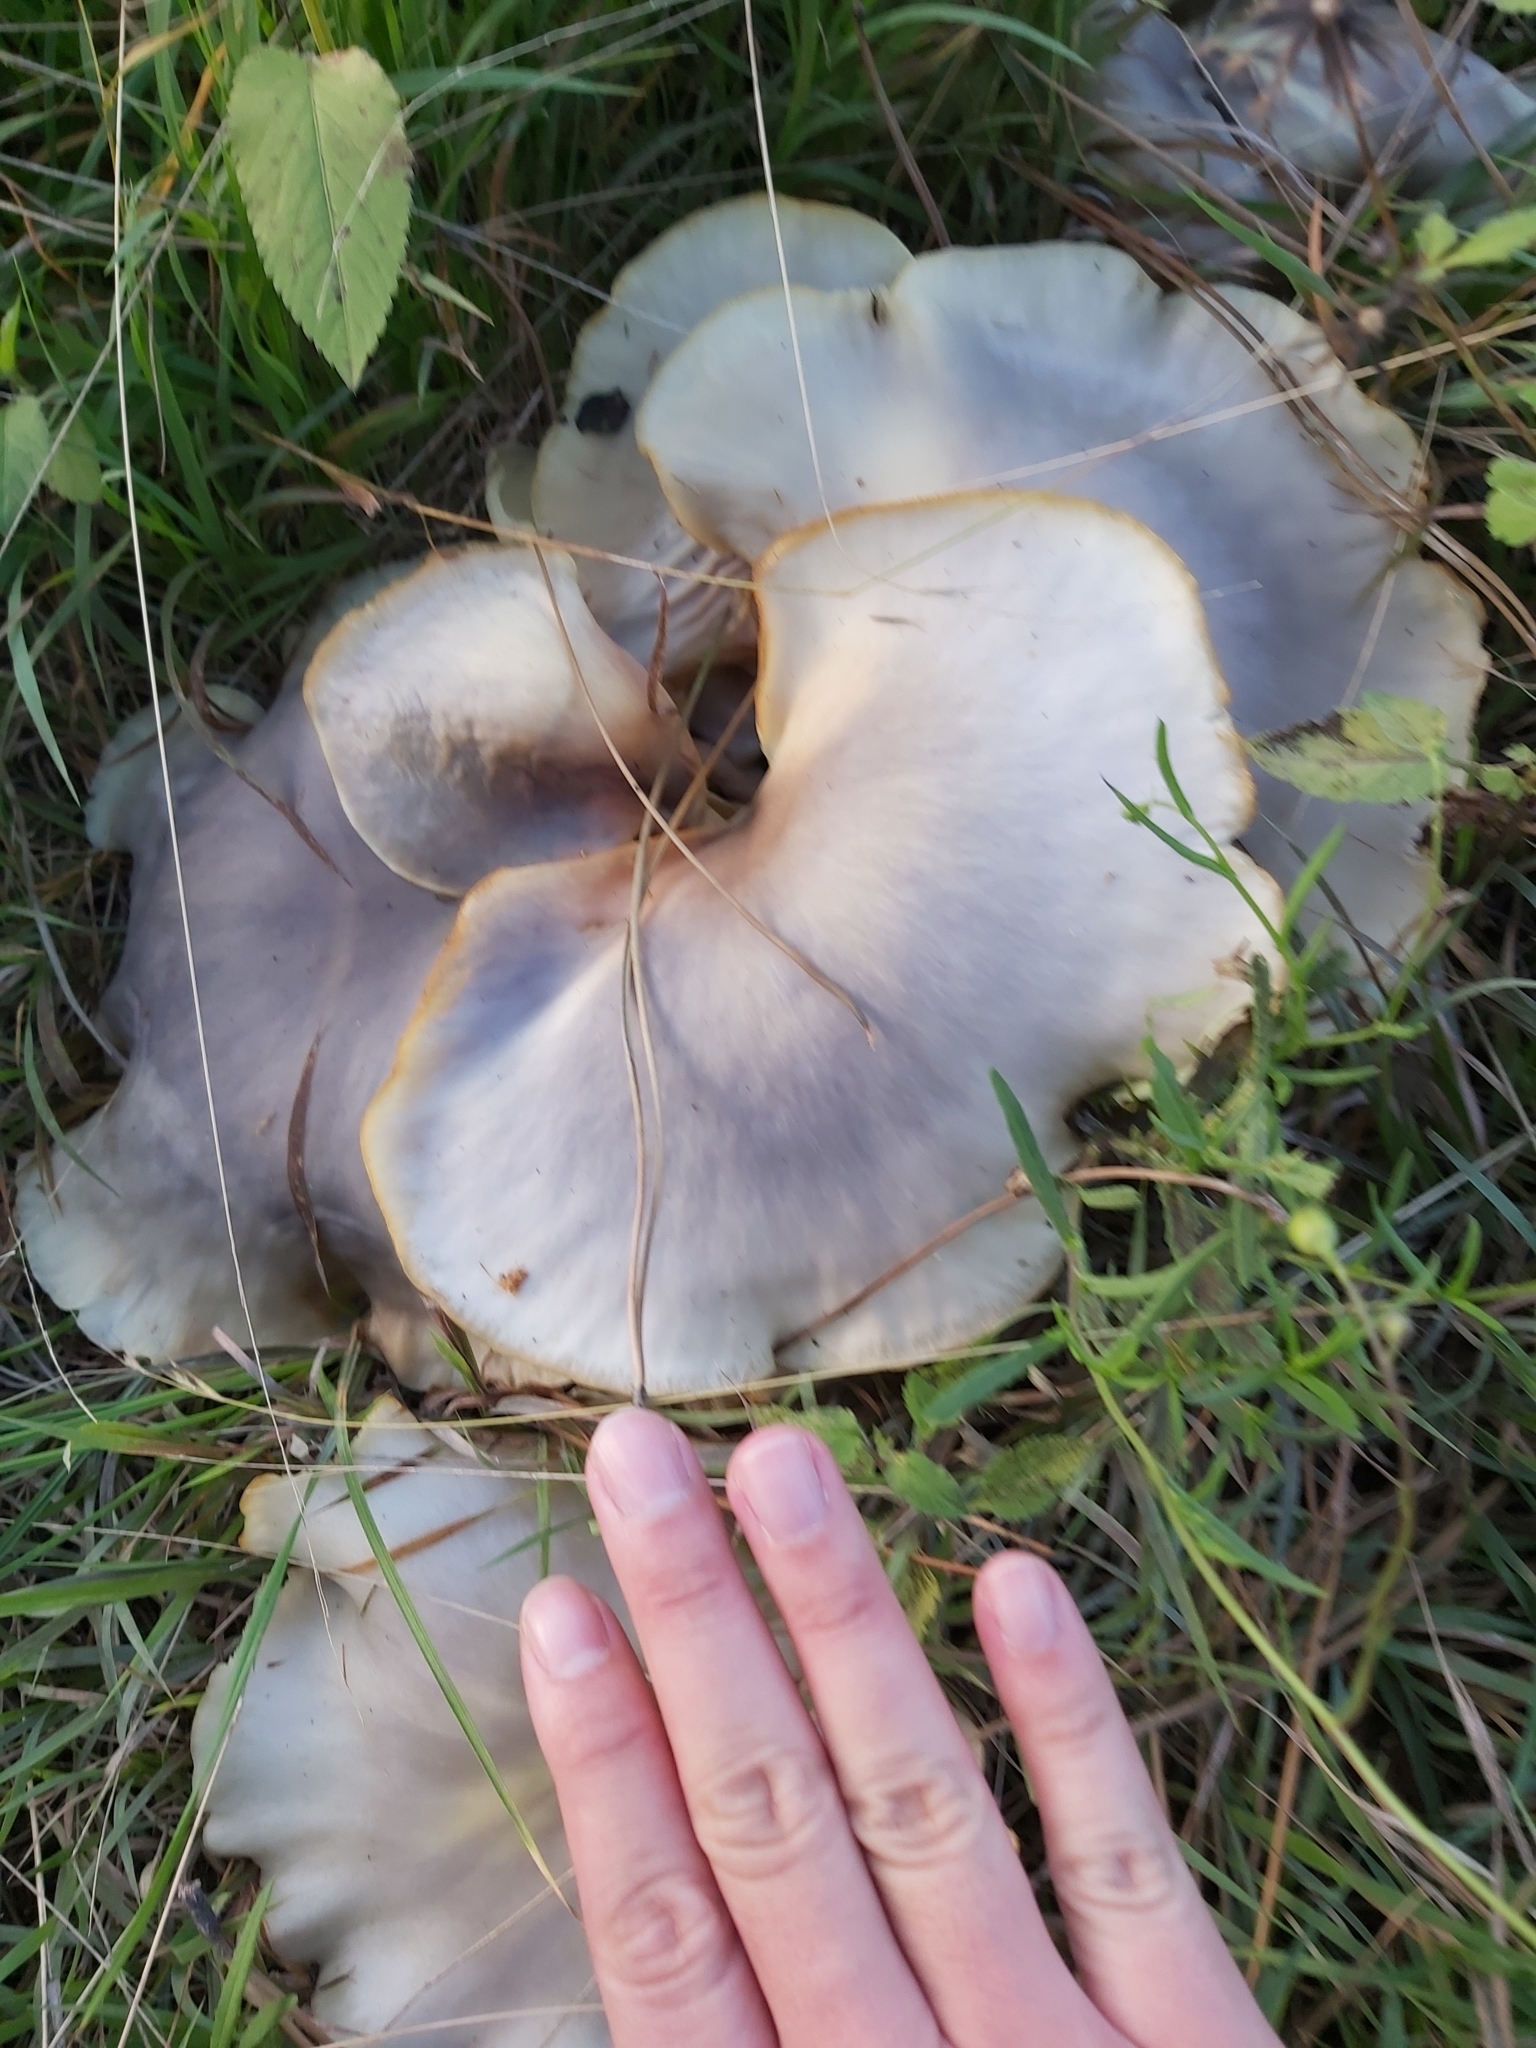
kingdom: Fungi
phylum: Basidiomycota
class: Agaricomycetes
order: Agaricales
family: Omphalotaceae
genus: Omphalotus
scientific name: Omphalotus nidiformis
